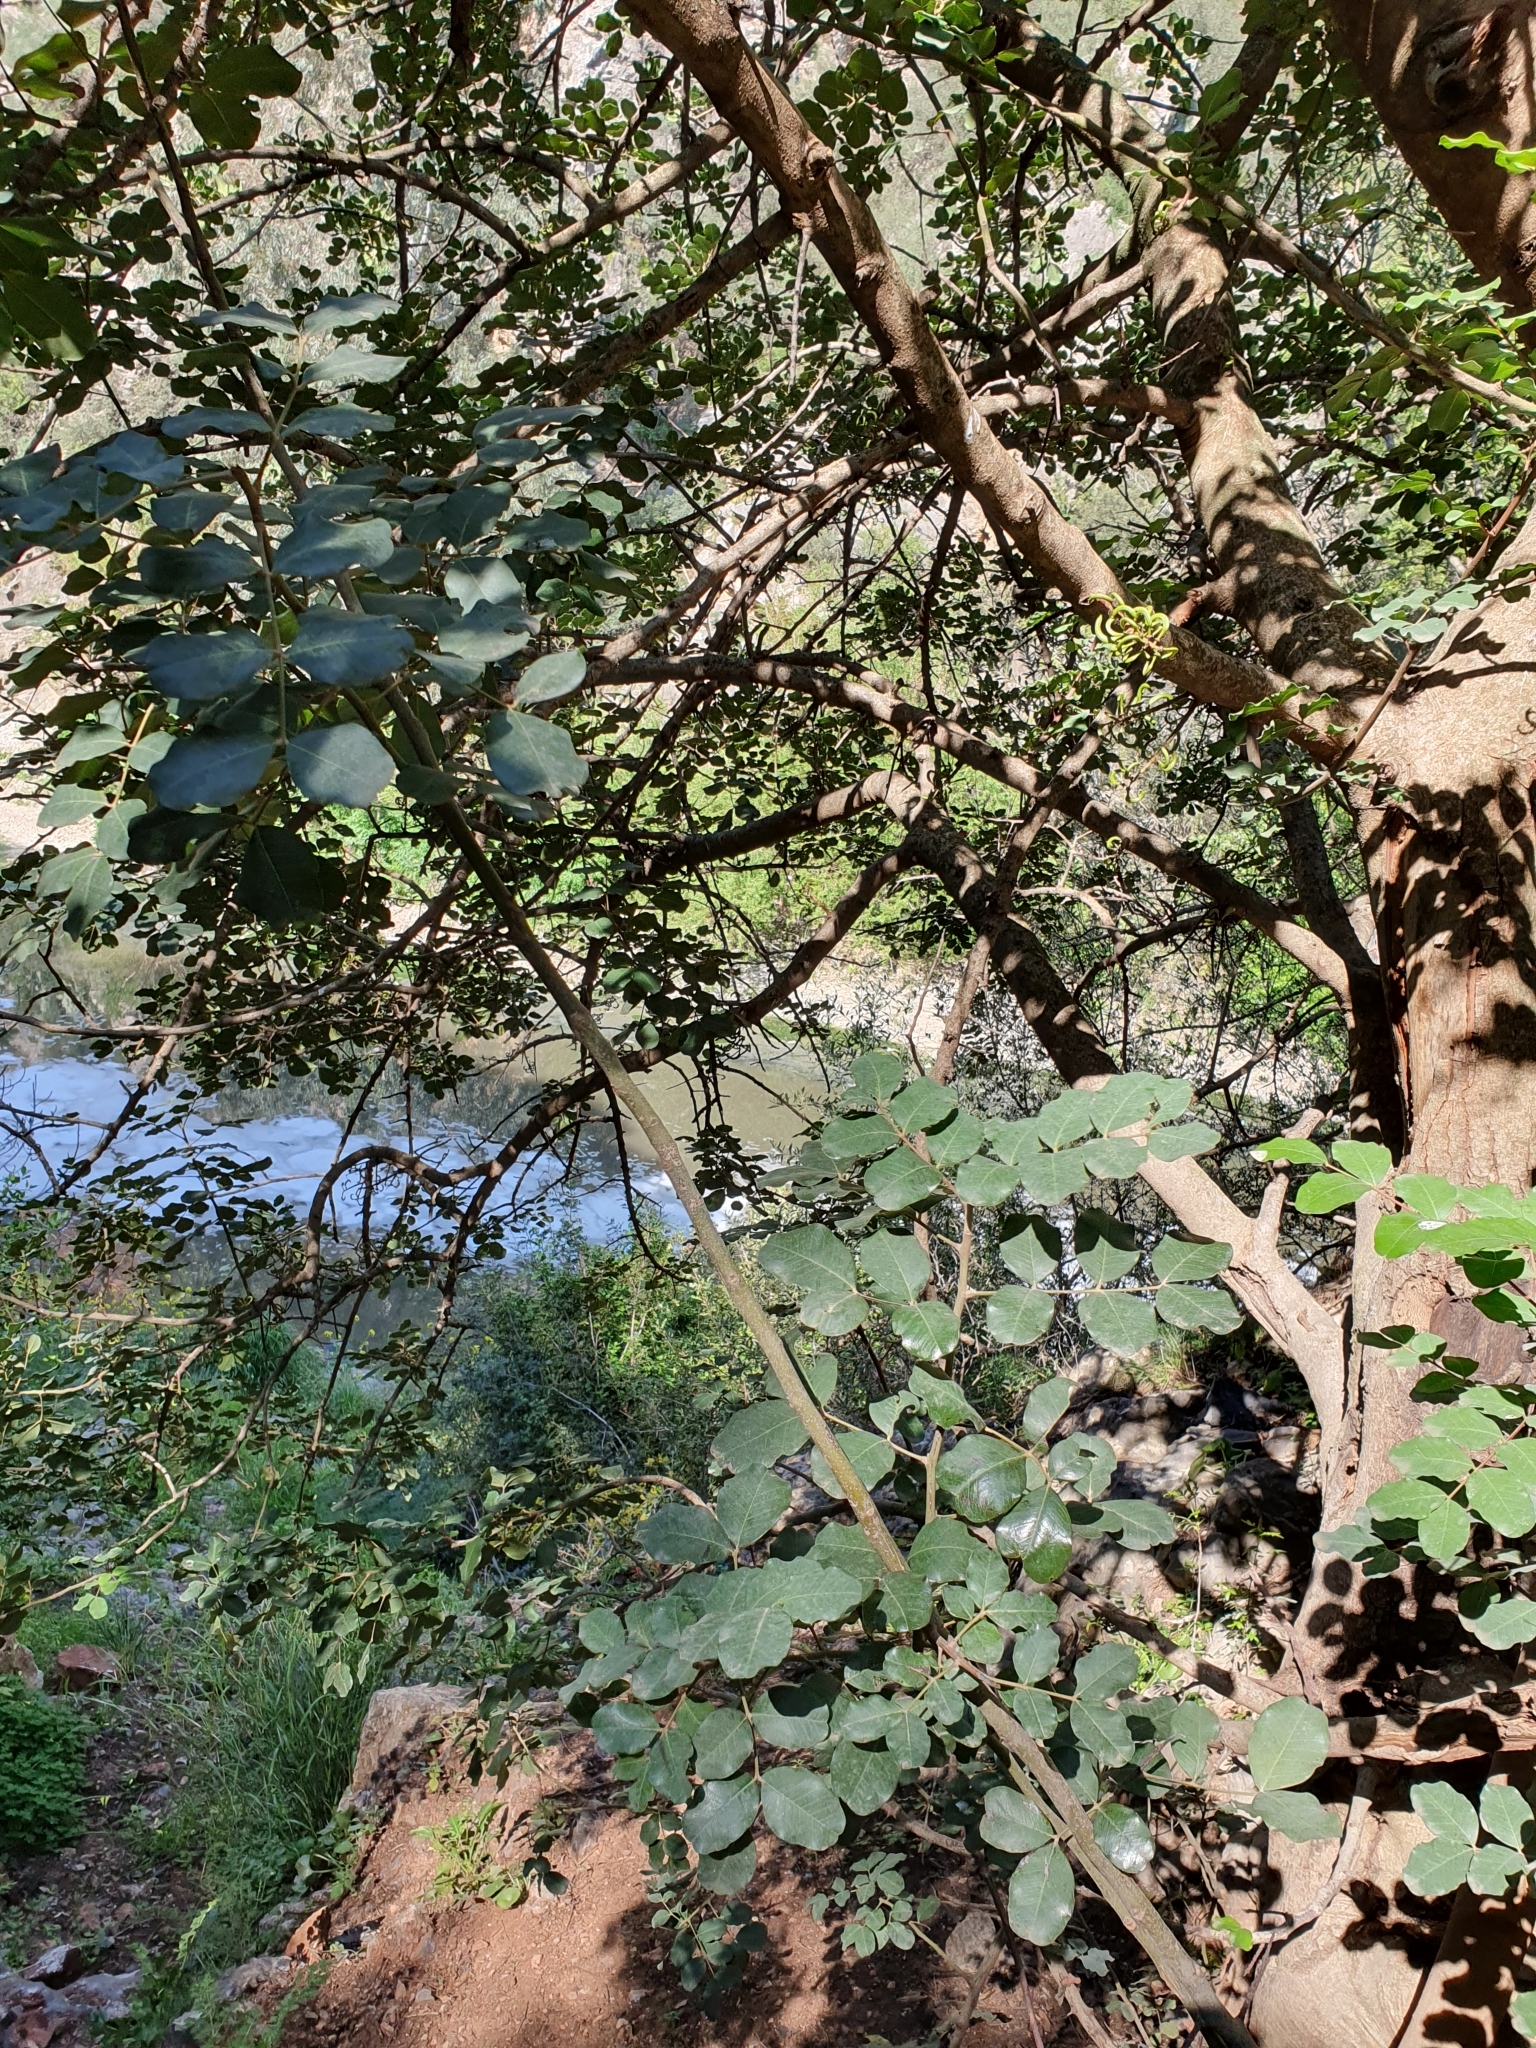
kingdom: Plantae
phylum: Tracheophyta
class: Magnoliopsida
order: Fabales
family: Fabaceae
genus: Ceratonia
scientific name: Ceratonia siliqua
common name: Carob
